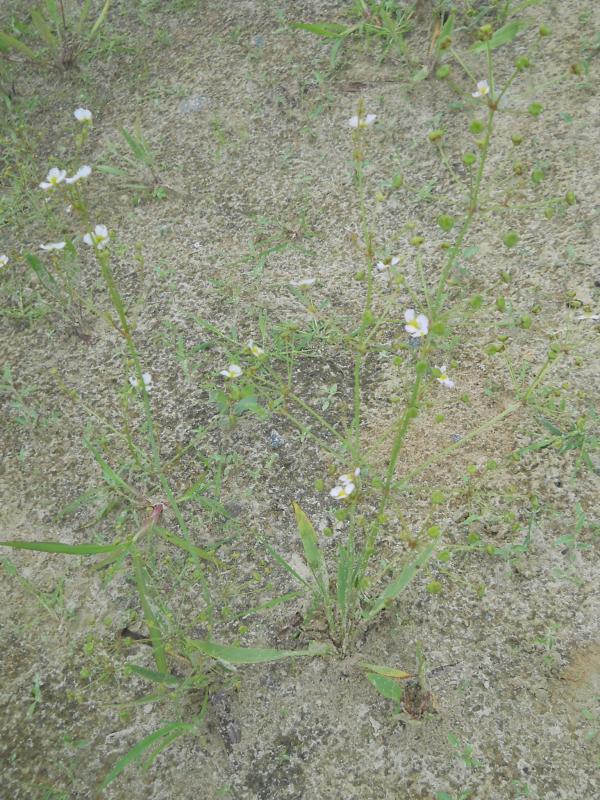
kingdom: Plantae
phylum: Tracheophyta
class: Liliopsida
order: Alismatales
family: Alismataceae
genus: Alisma
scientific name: Alisma lanceolatum
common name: Narrow-leaved water-plantain
